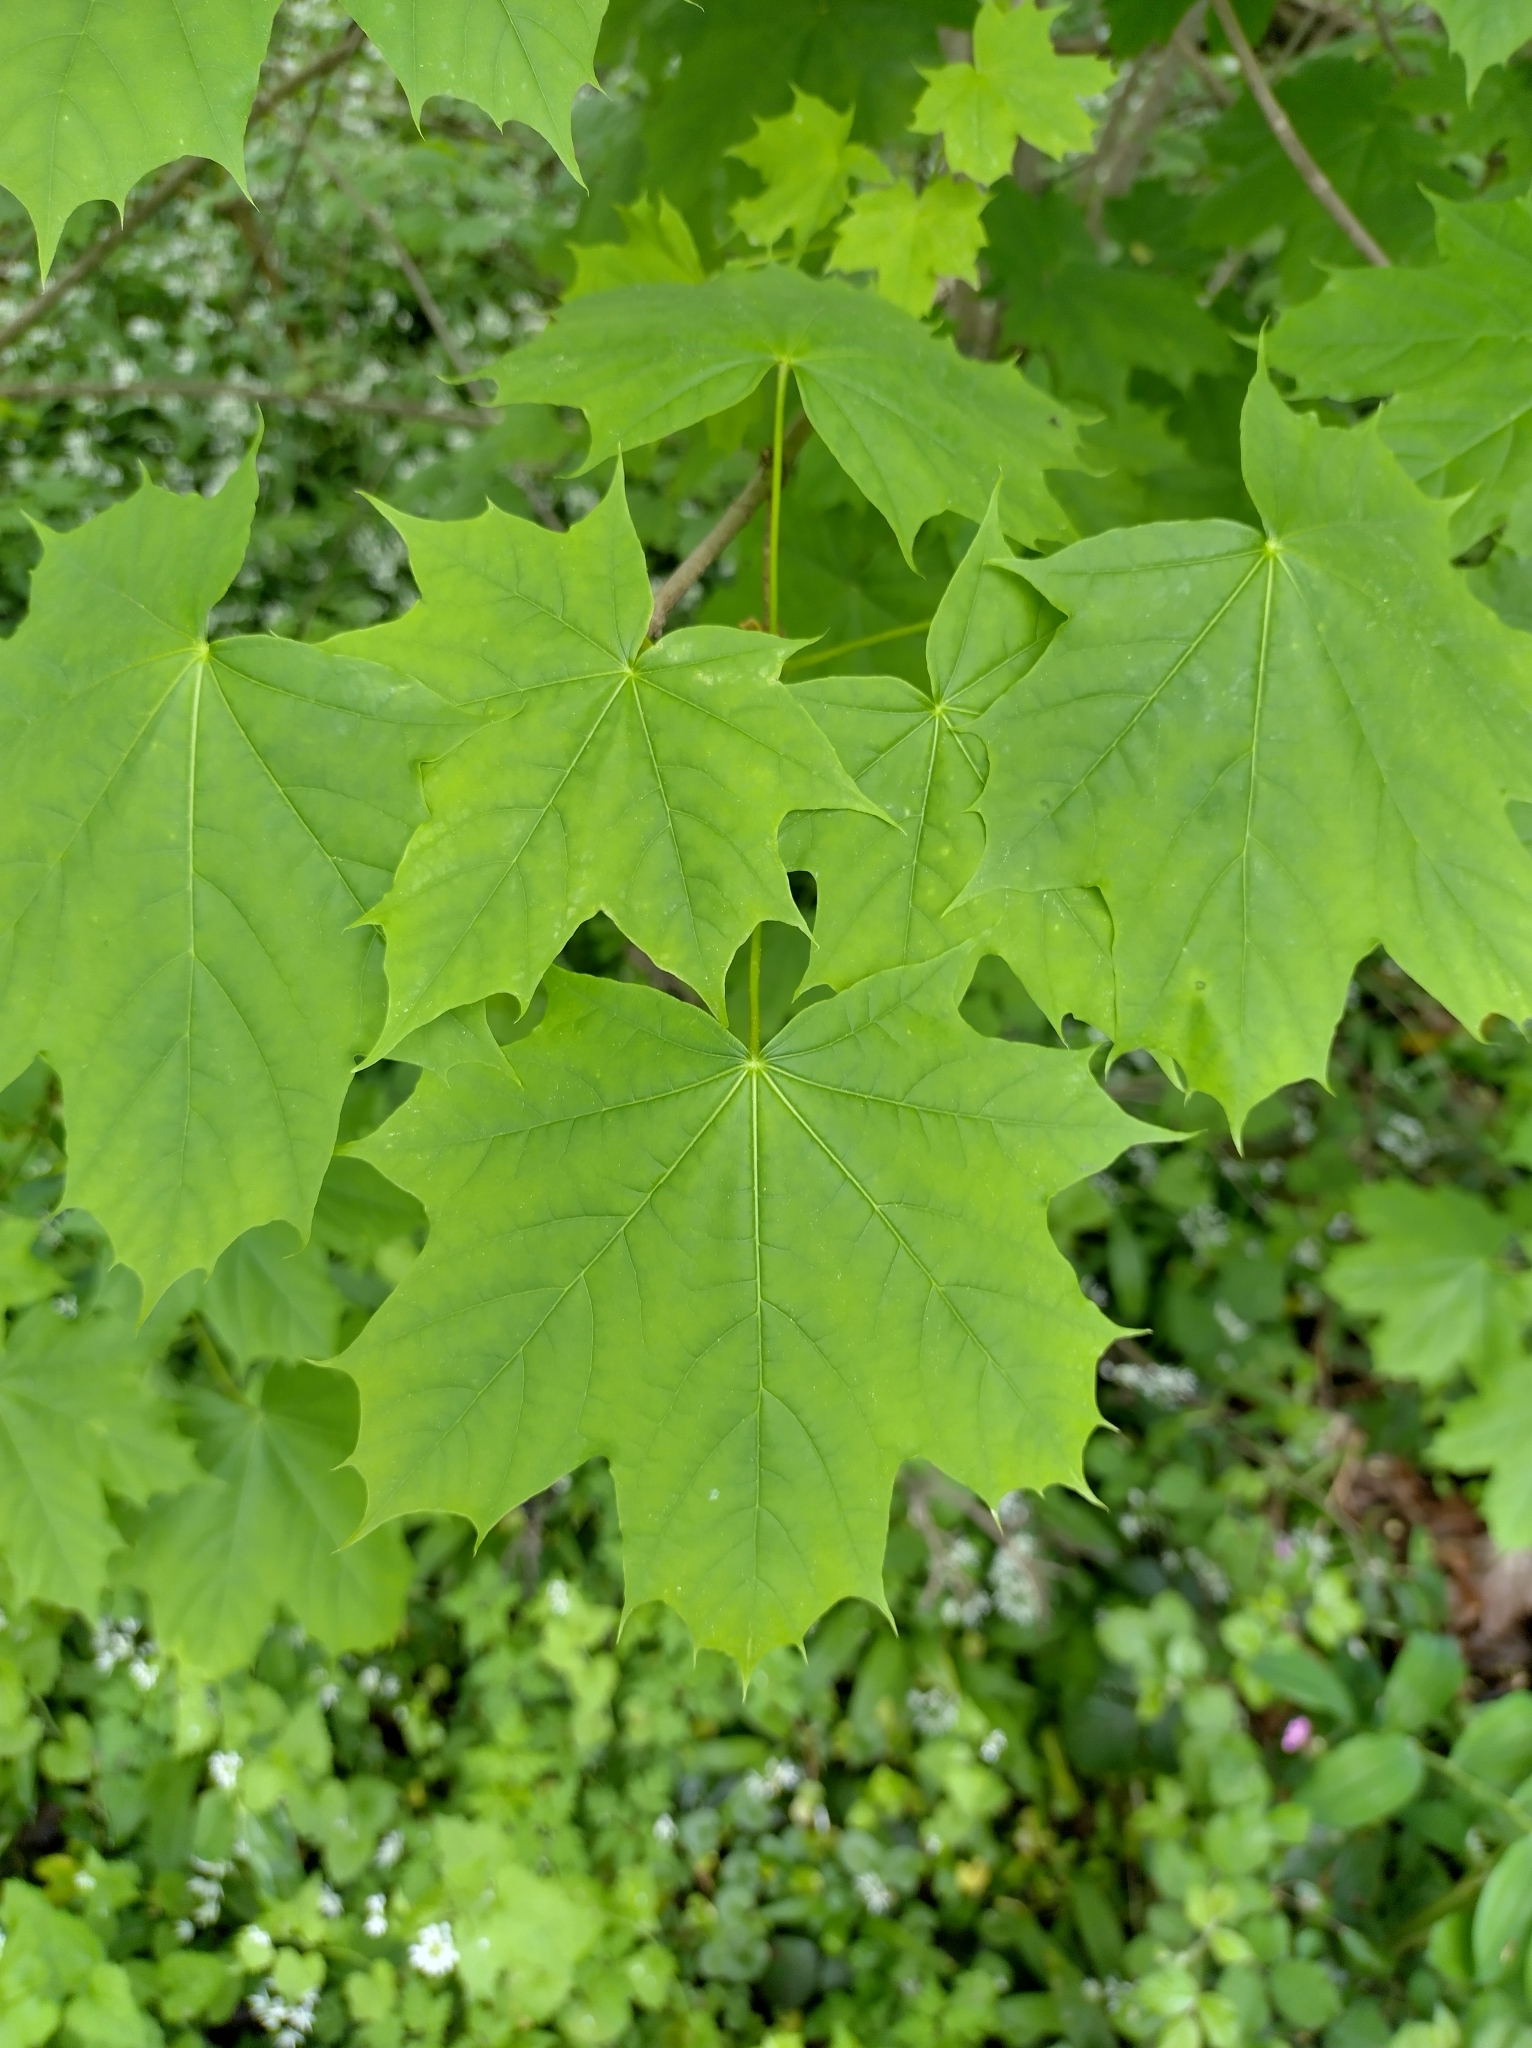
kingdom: Plantae
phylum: Tracheophyta
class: Magnoliopsida
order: Sapindales
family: Sapindaceae
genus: Acer
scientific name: Acer platanoides
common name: Norway maple
